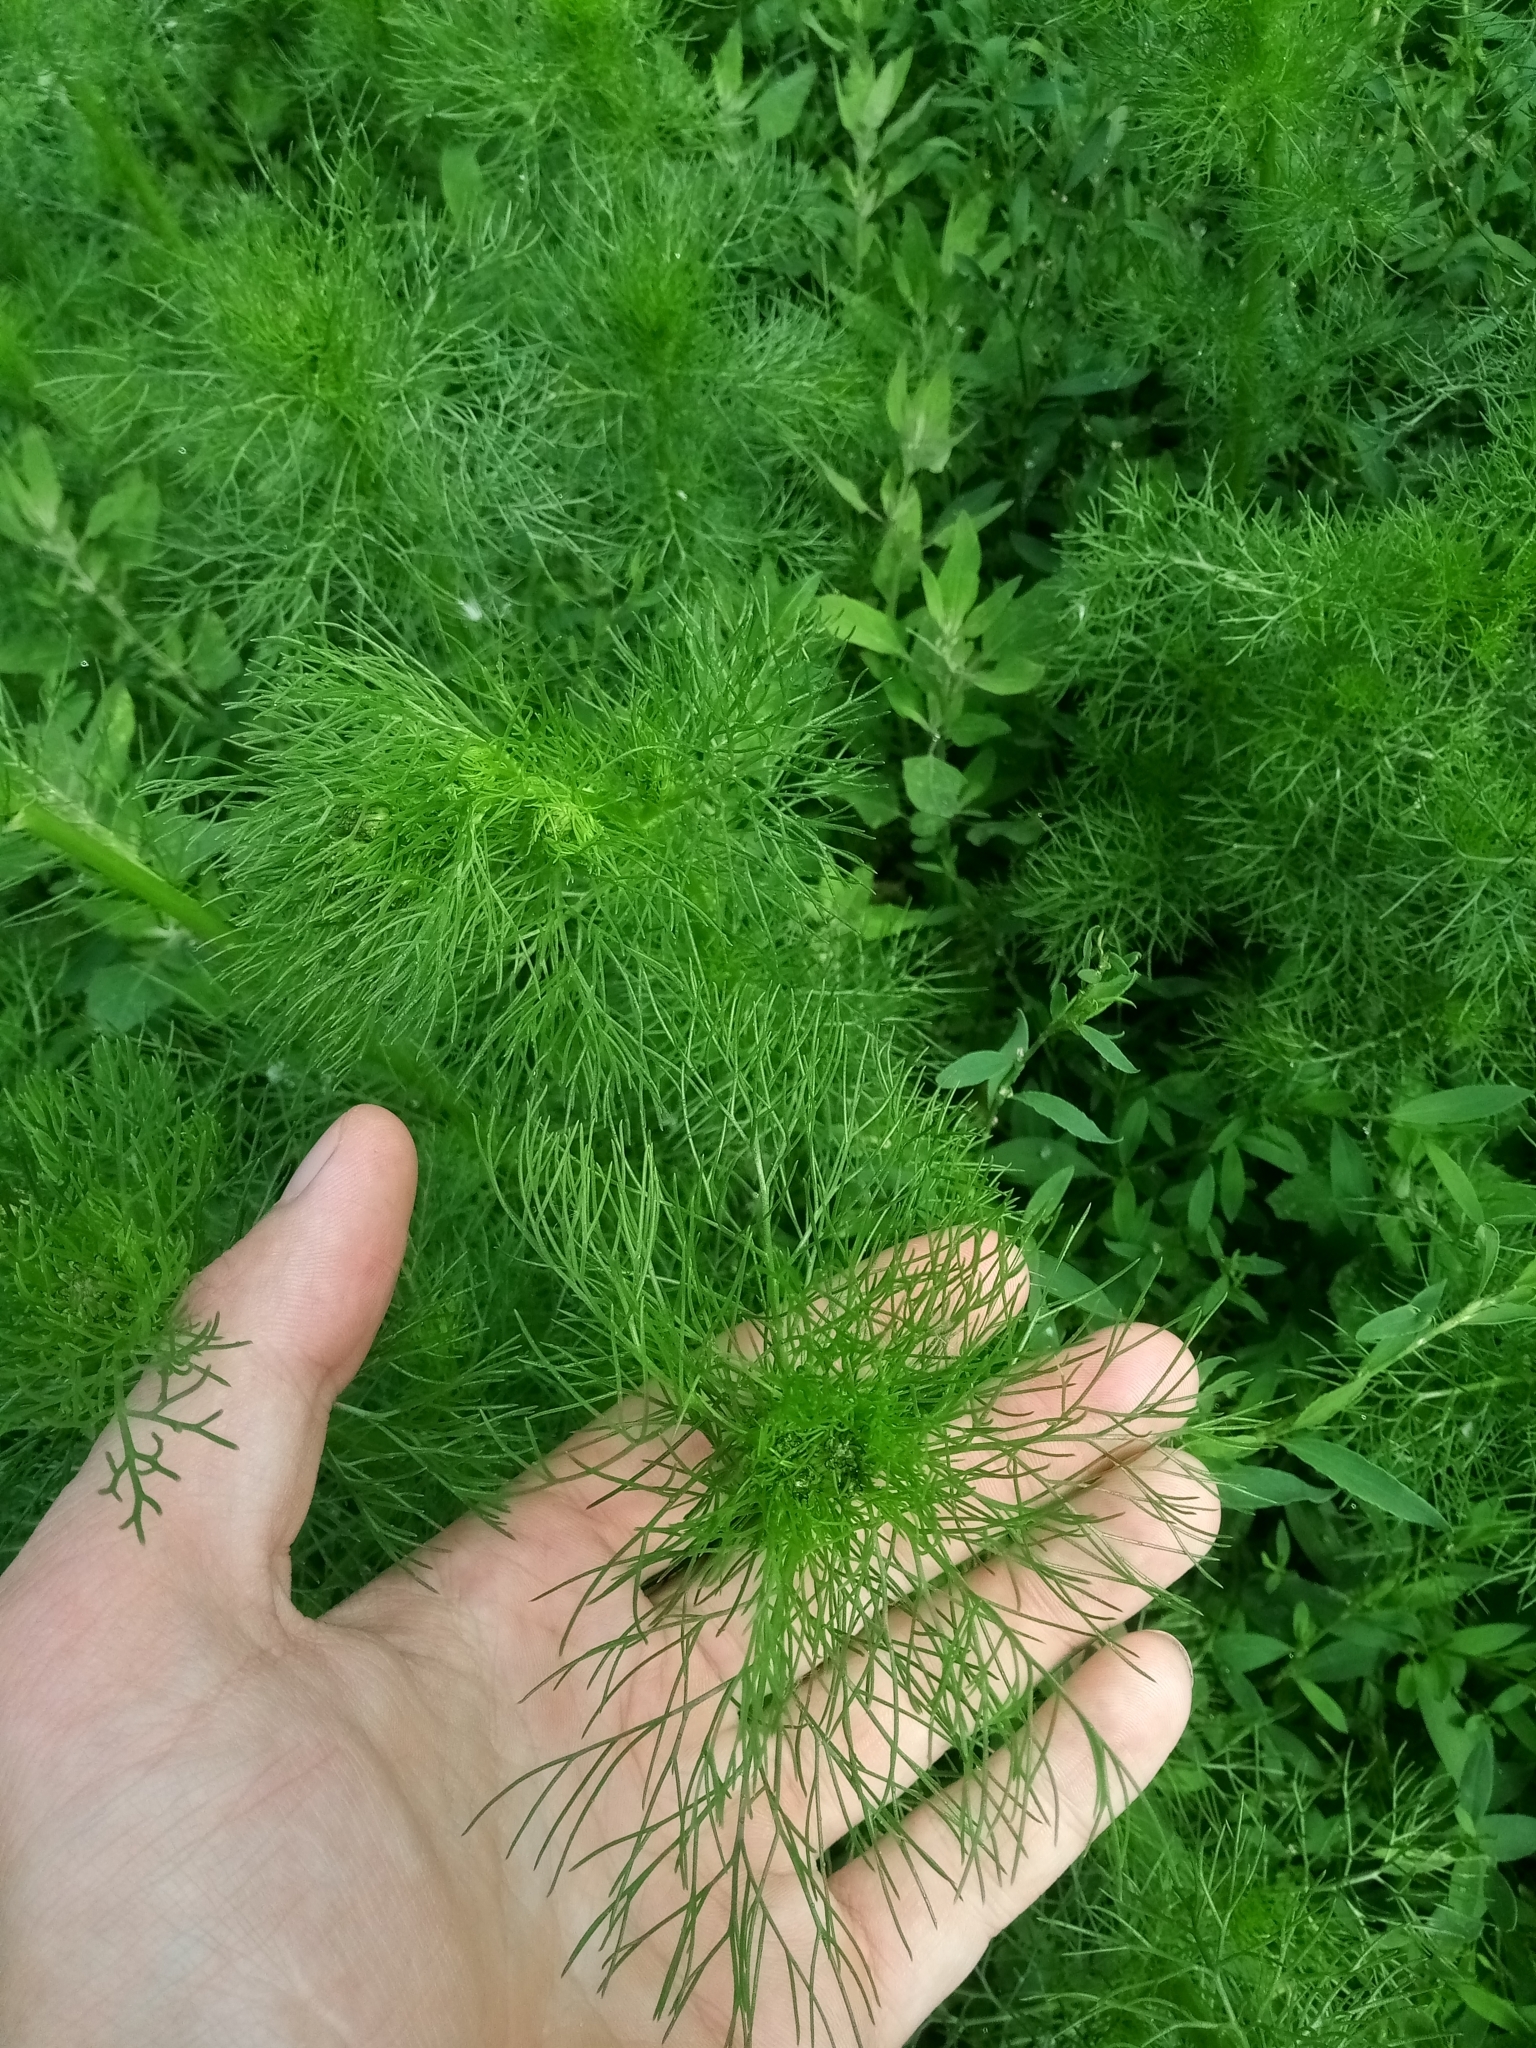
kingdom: Plantae
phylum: Tracheophyta
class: Magnoliopsida
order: Asterales
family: Asteraceae
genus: Tripleurospermum
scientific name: Tripleurospermum inodorum
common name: Scentless mayweed
